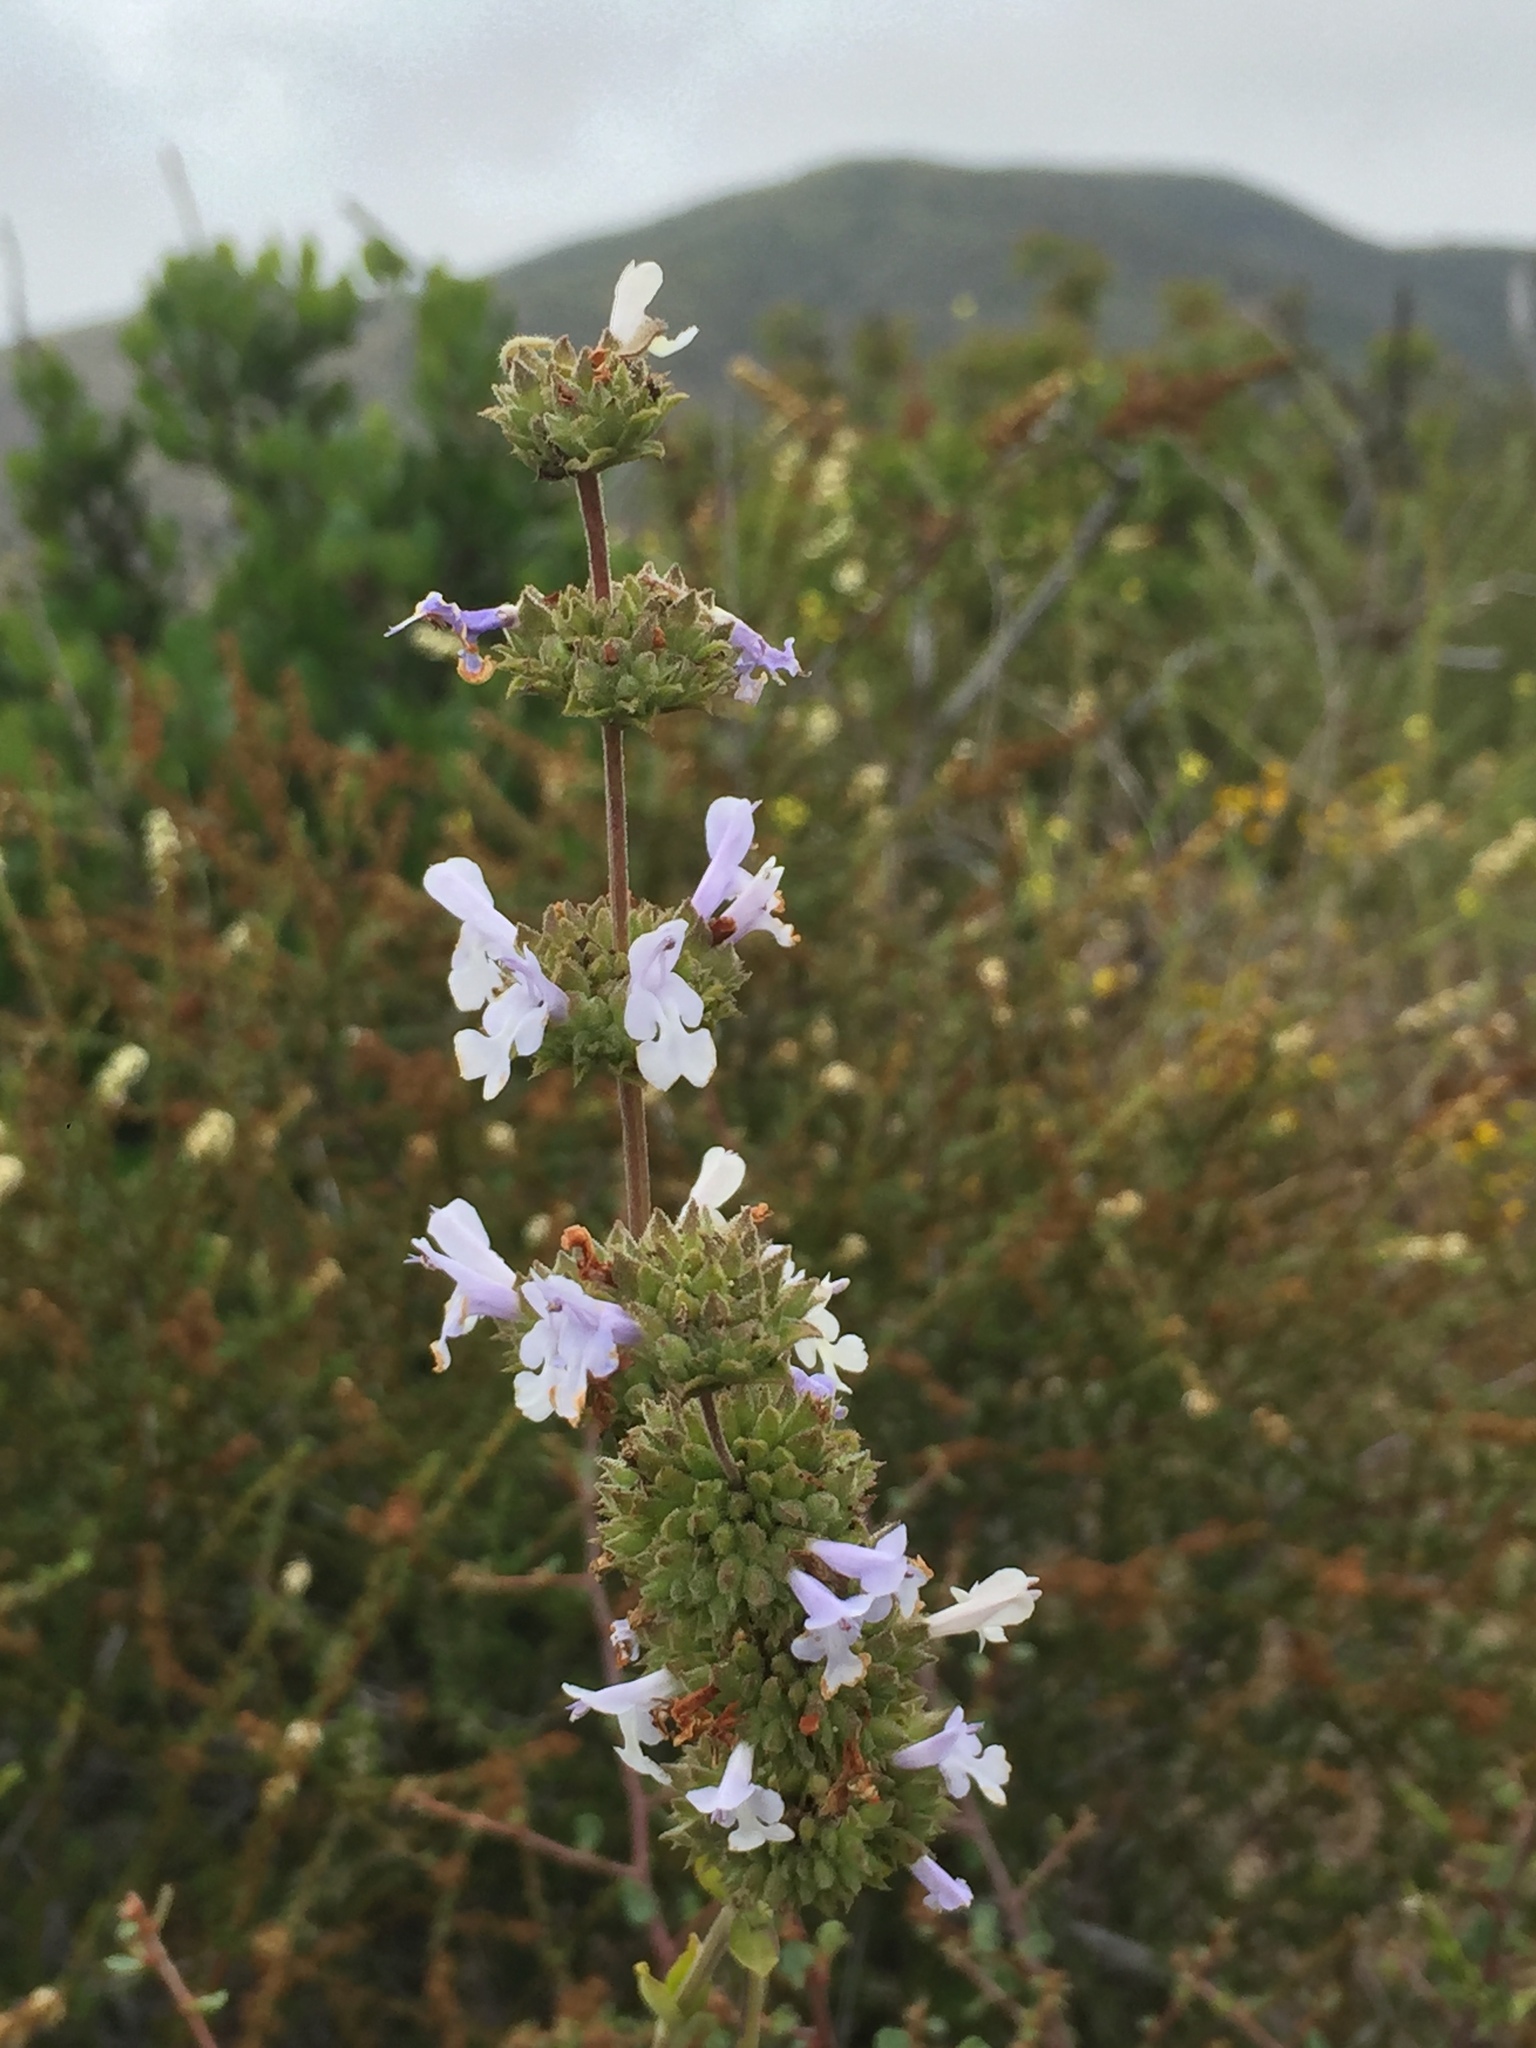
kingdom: Plantae
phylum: Tracheophyta
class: Magnoliopsida
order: Lamiales
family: Lamiaceae
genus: Salvia
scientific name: Salvia mellifera
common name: Black sage
